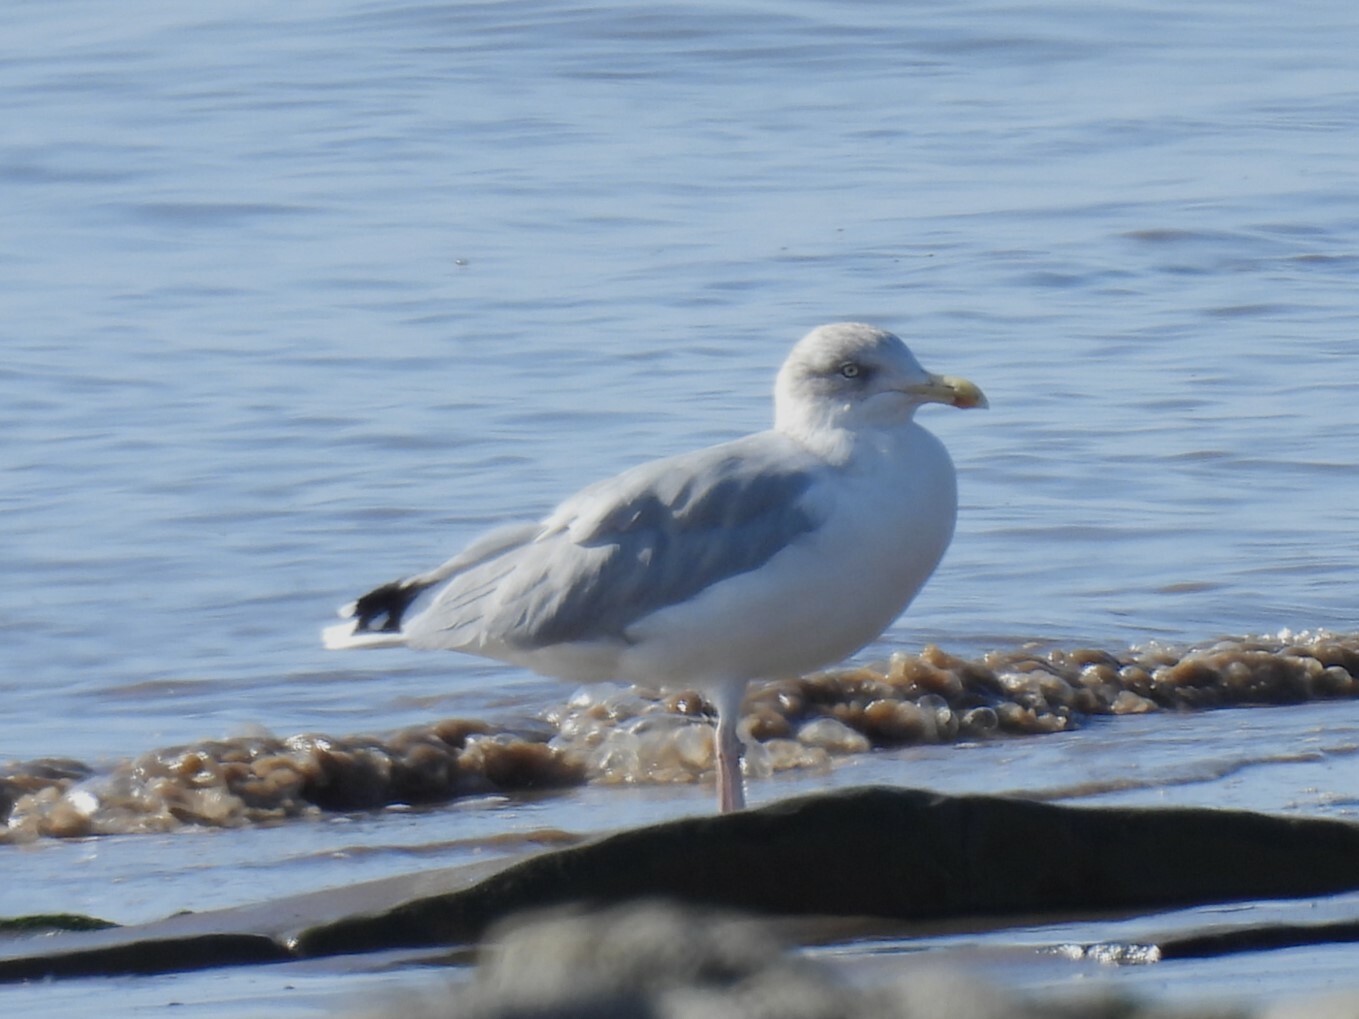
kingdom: Animalia
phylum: Chordata
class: Aves
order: Charadriiformes
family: Laridae
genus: Larus
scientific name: Larus argentatus
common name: Herring gull
